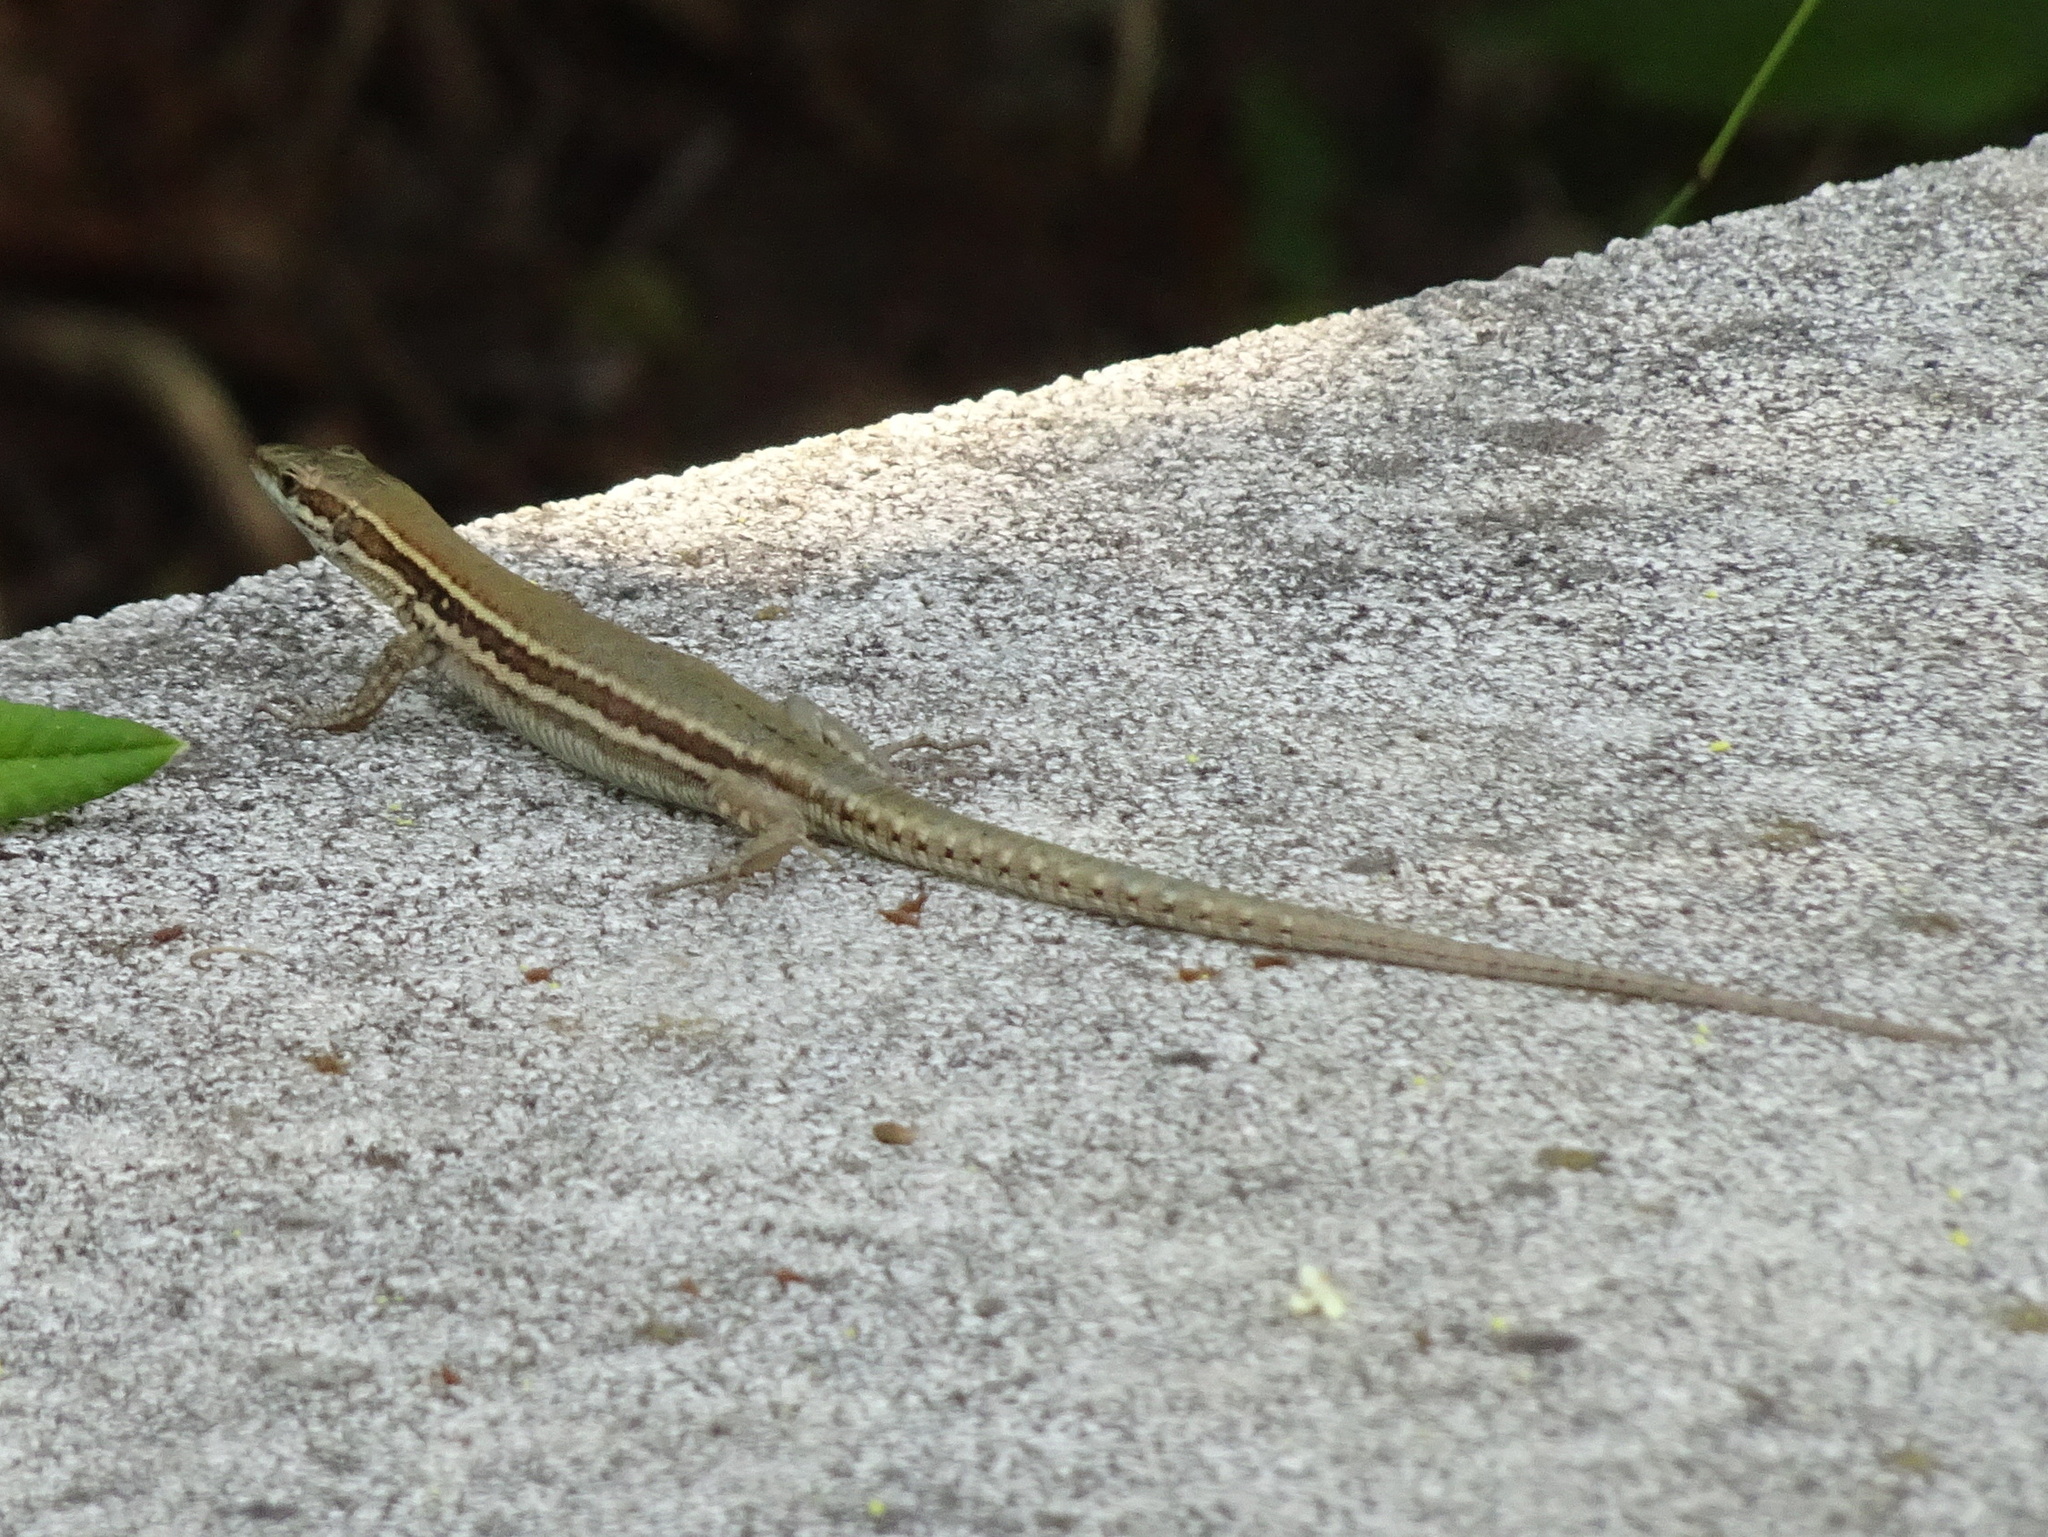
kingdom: Animalia
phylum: Chordata
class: Squamata
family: Lacertidae
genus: Podarcis
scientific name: Podarcis muralis
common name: Common wall lizard
